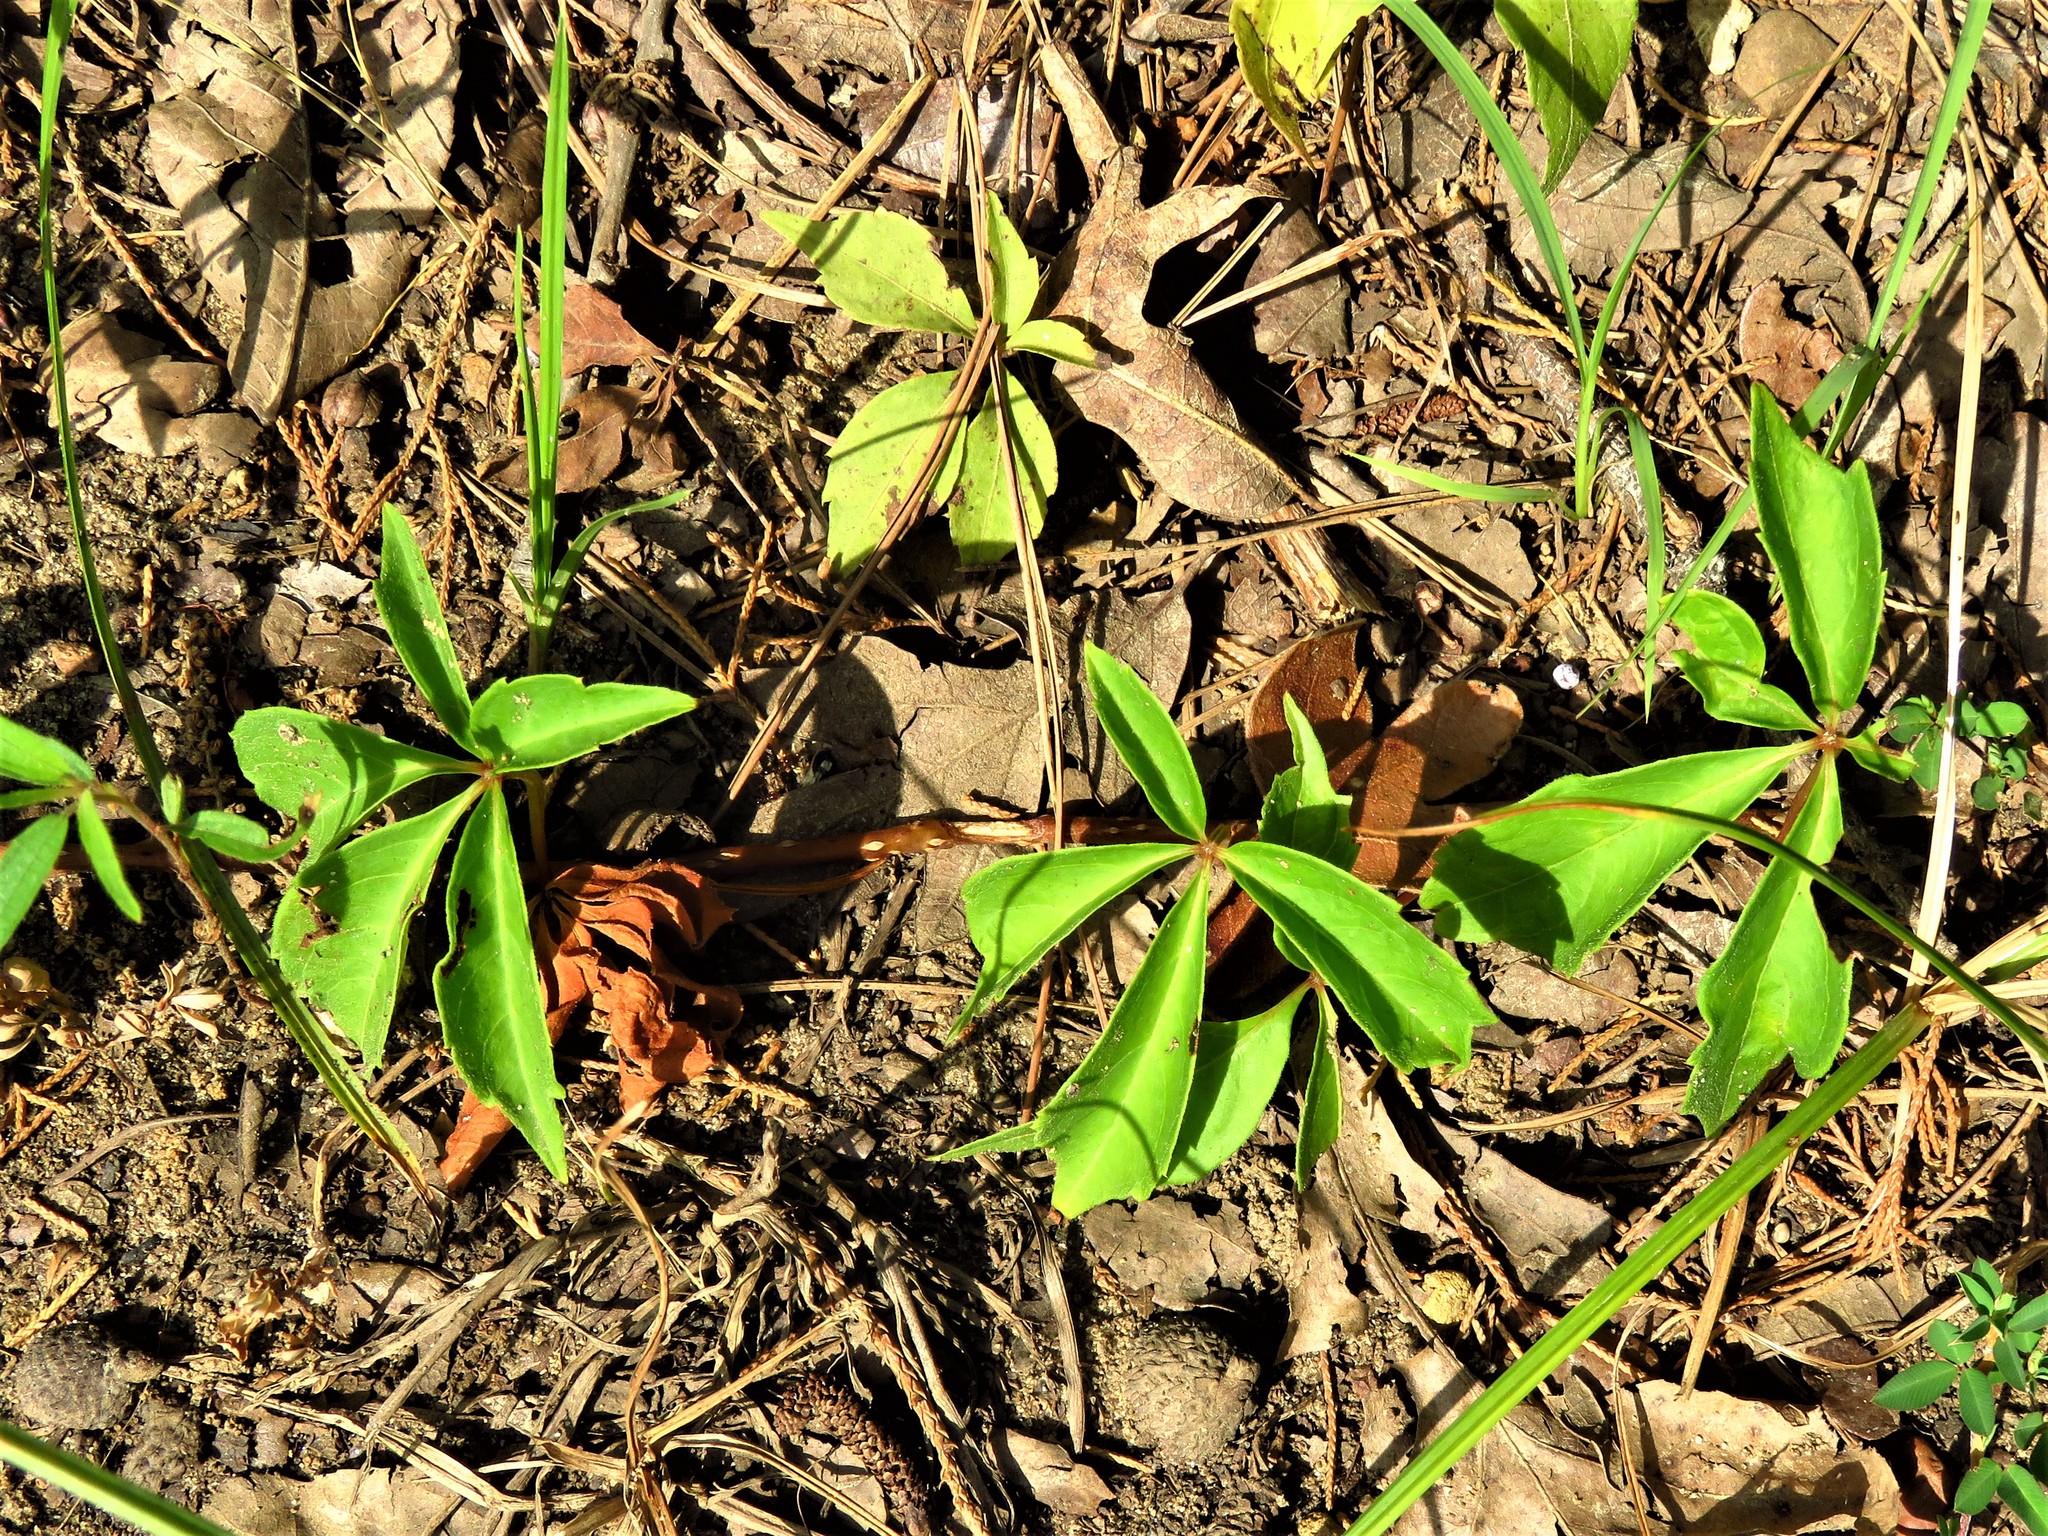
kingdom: Plantae
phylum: Tracheophyta
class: Magnoliopsida
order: Vitales
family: Vitaceae
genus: Parthenocissus
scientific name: Parthenocissus quinquefolia
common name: Virginia-creeper
